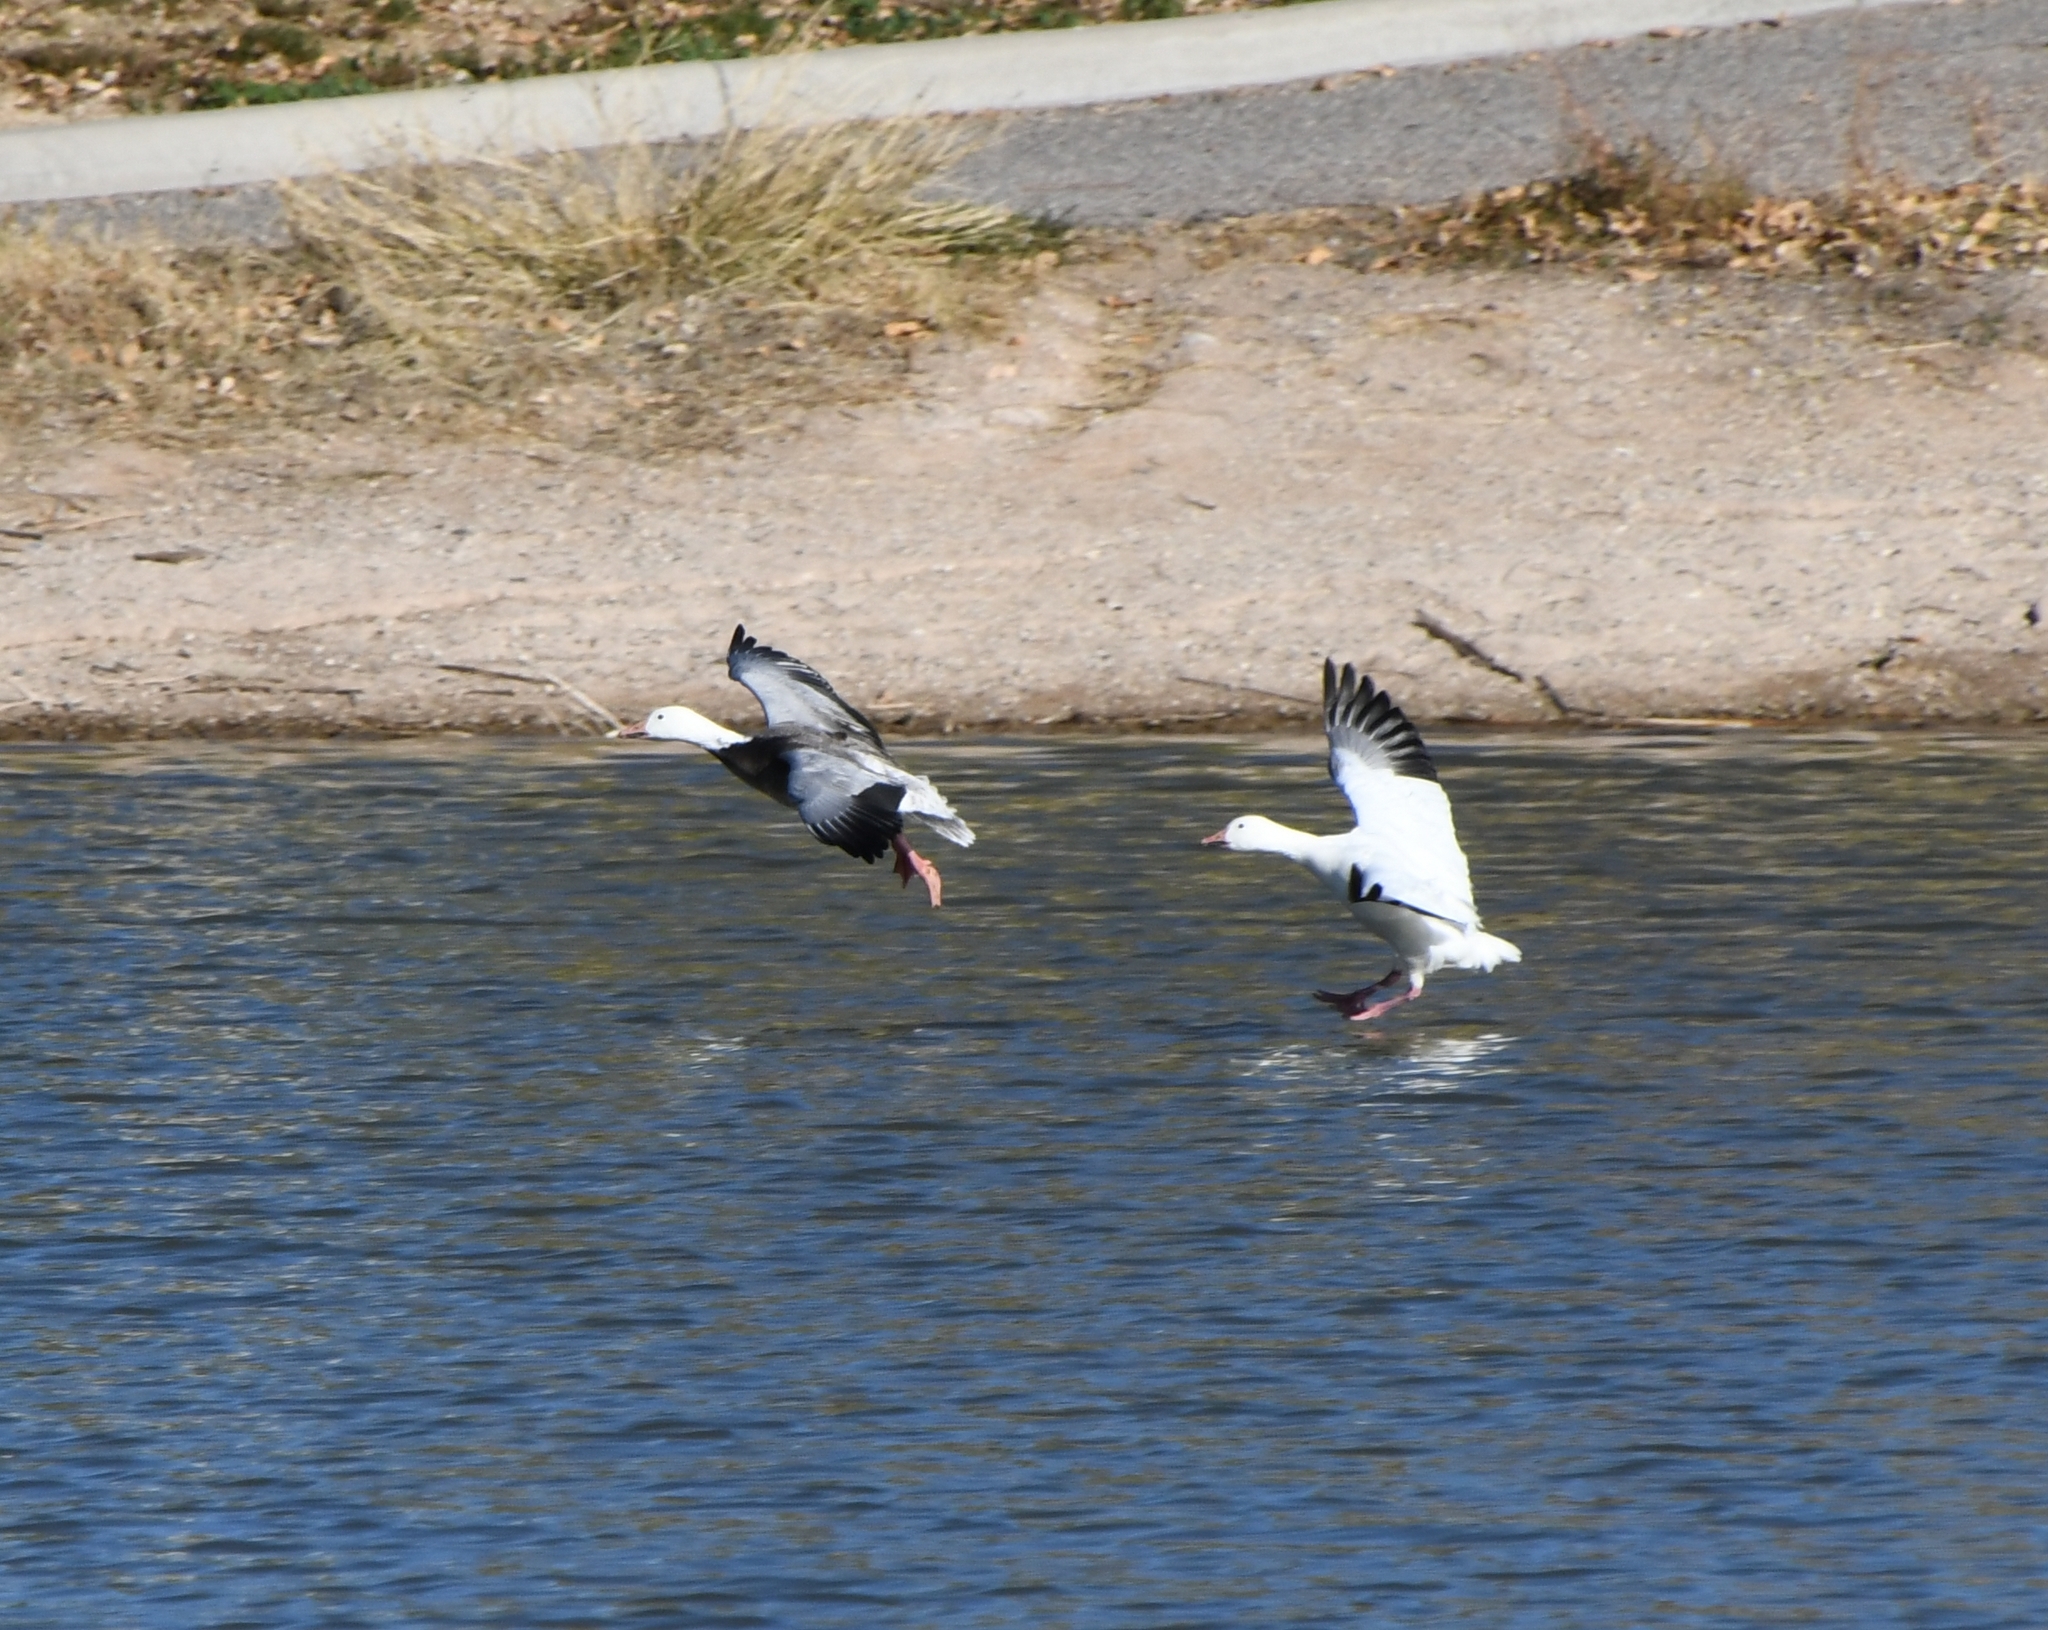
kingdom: Animalia
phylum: Chordata
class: Aves
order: Anseriformes
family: Anatidae
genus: Anser
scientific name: Anser caerulescens
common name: Snow goose
